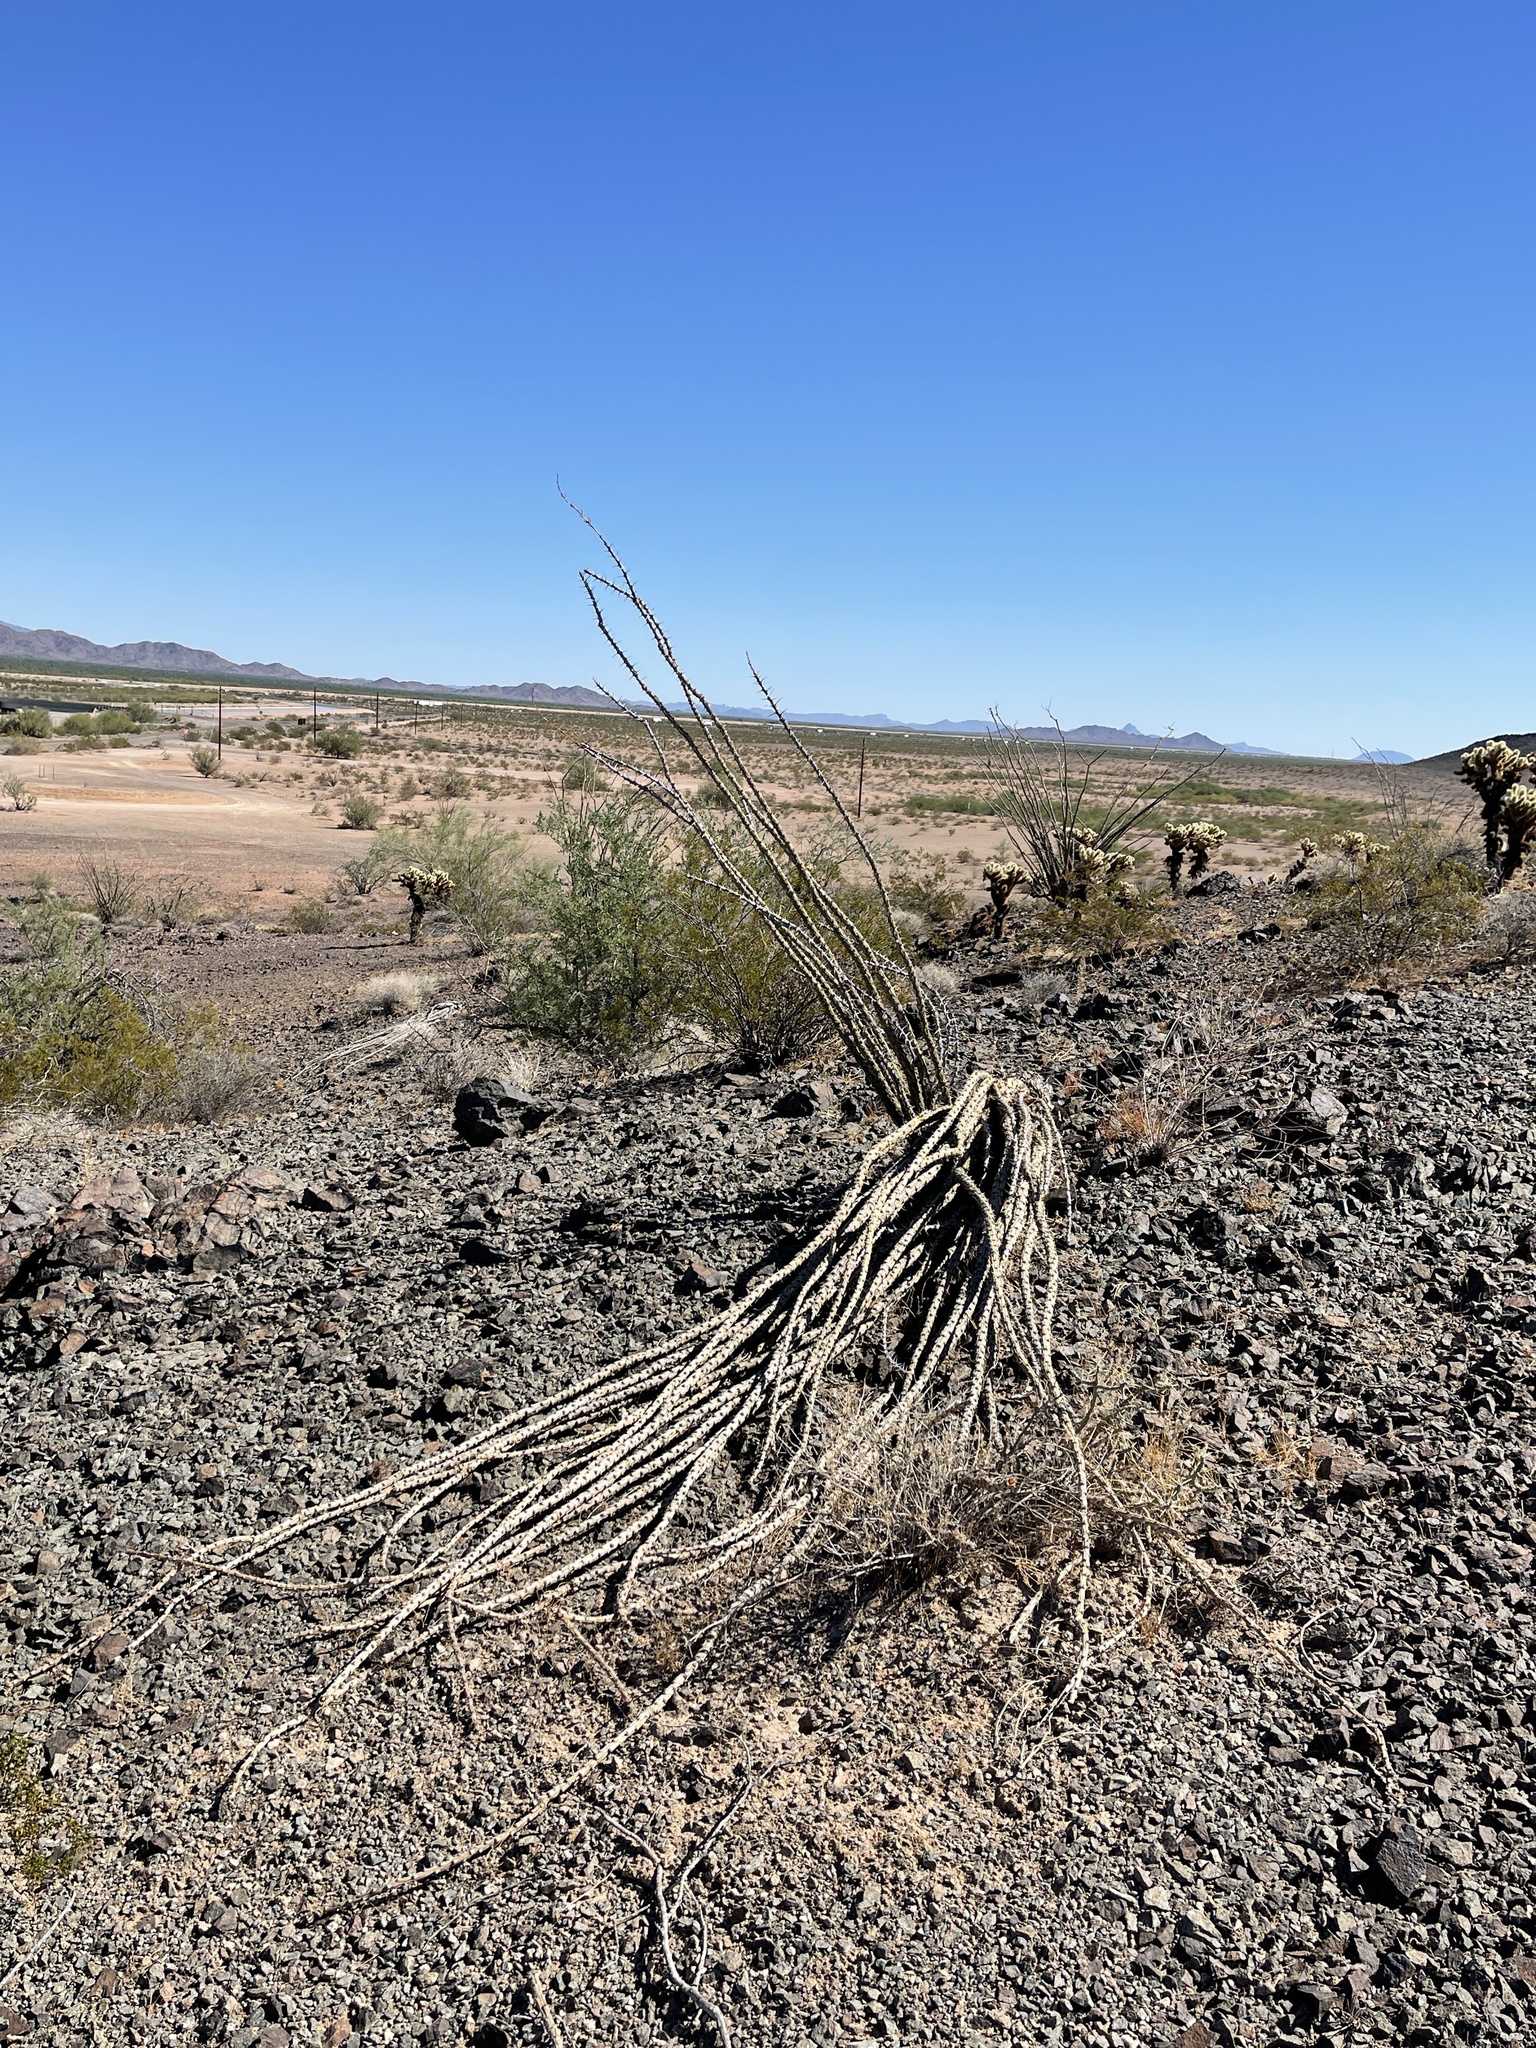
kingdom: Plantae
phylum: Tracheophyta
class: Magnoliopsida
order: Ericales
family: Fouquieriaceae
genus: Fouquieria
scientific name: Fouquieria splendens
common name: Vine-cactus
